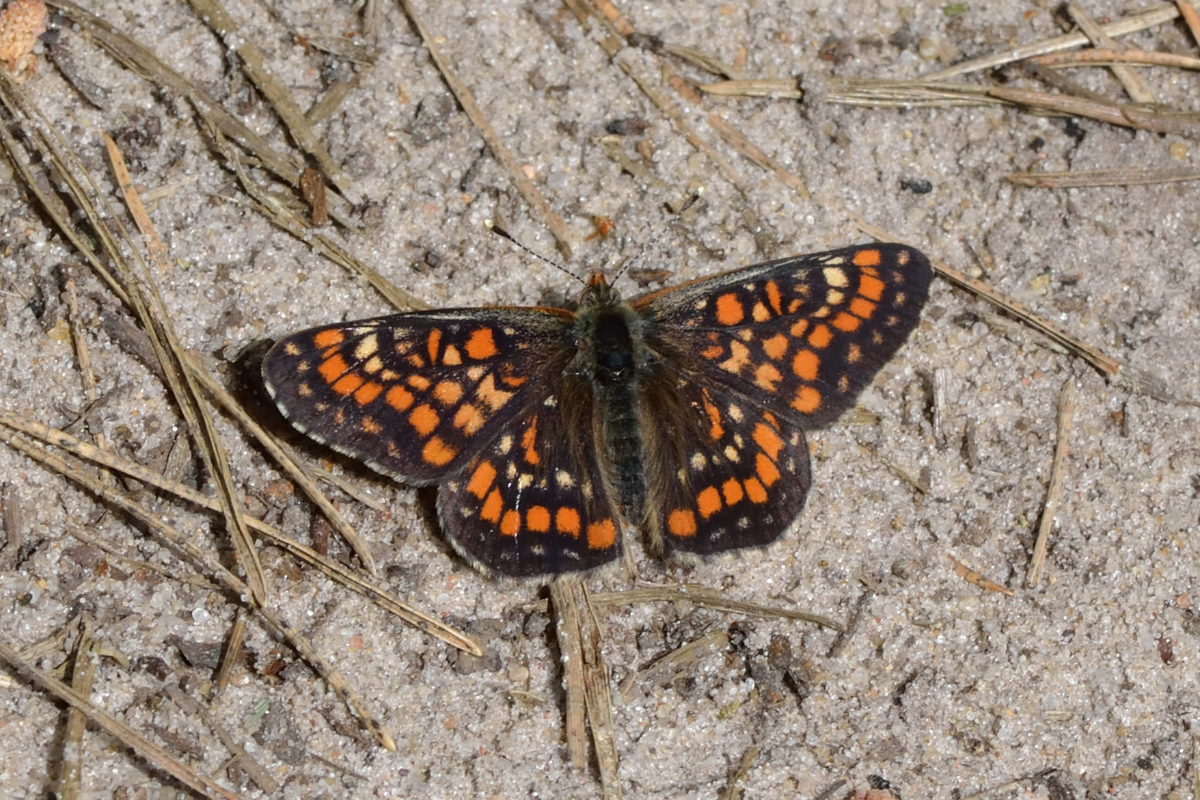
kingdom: Animalia
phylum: Arthropoda
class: Insecta
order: Lepidoptera
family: Nymphalidae
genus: Euphydryas
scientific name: Euphydryas maturna
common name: Scarce fritillary
